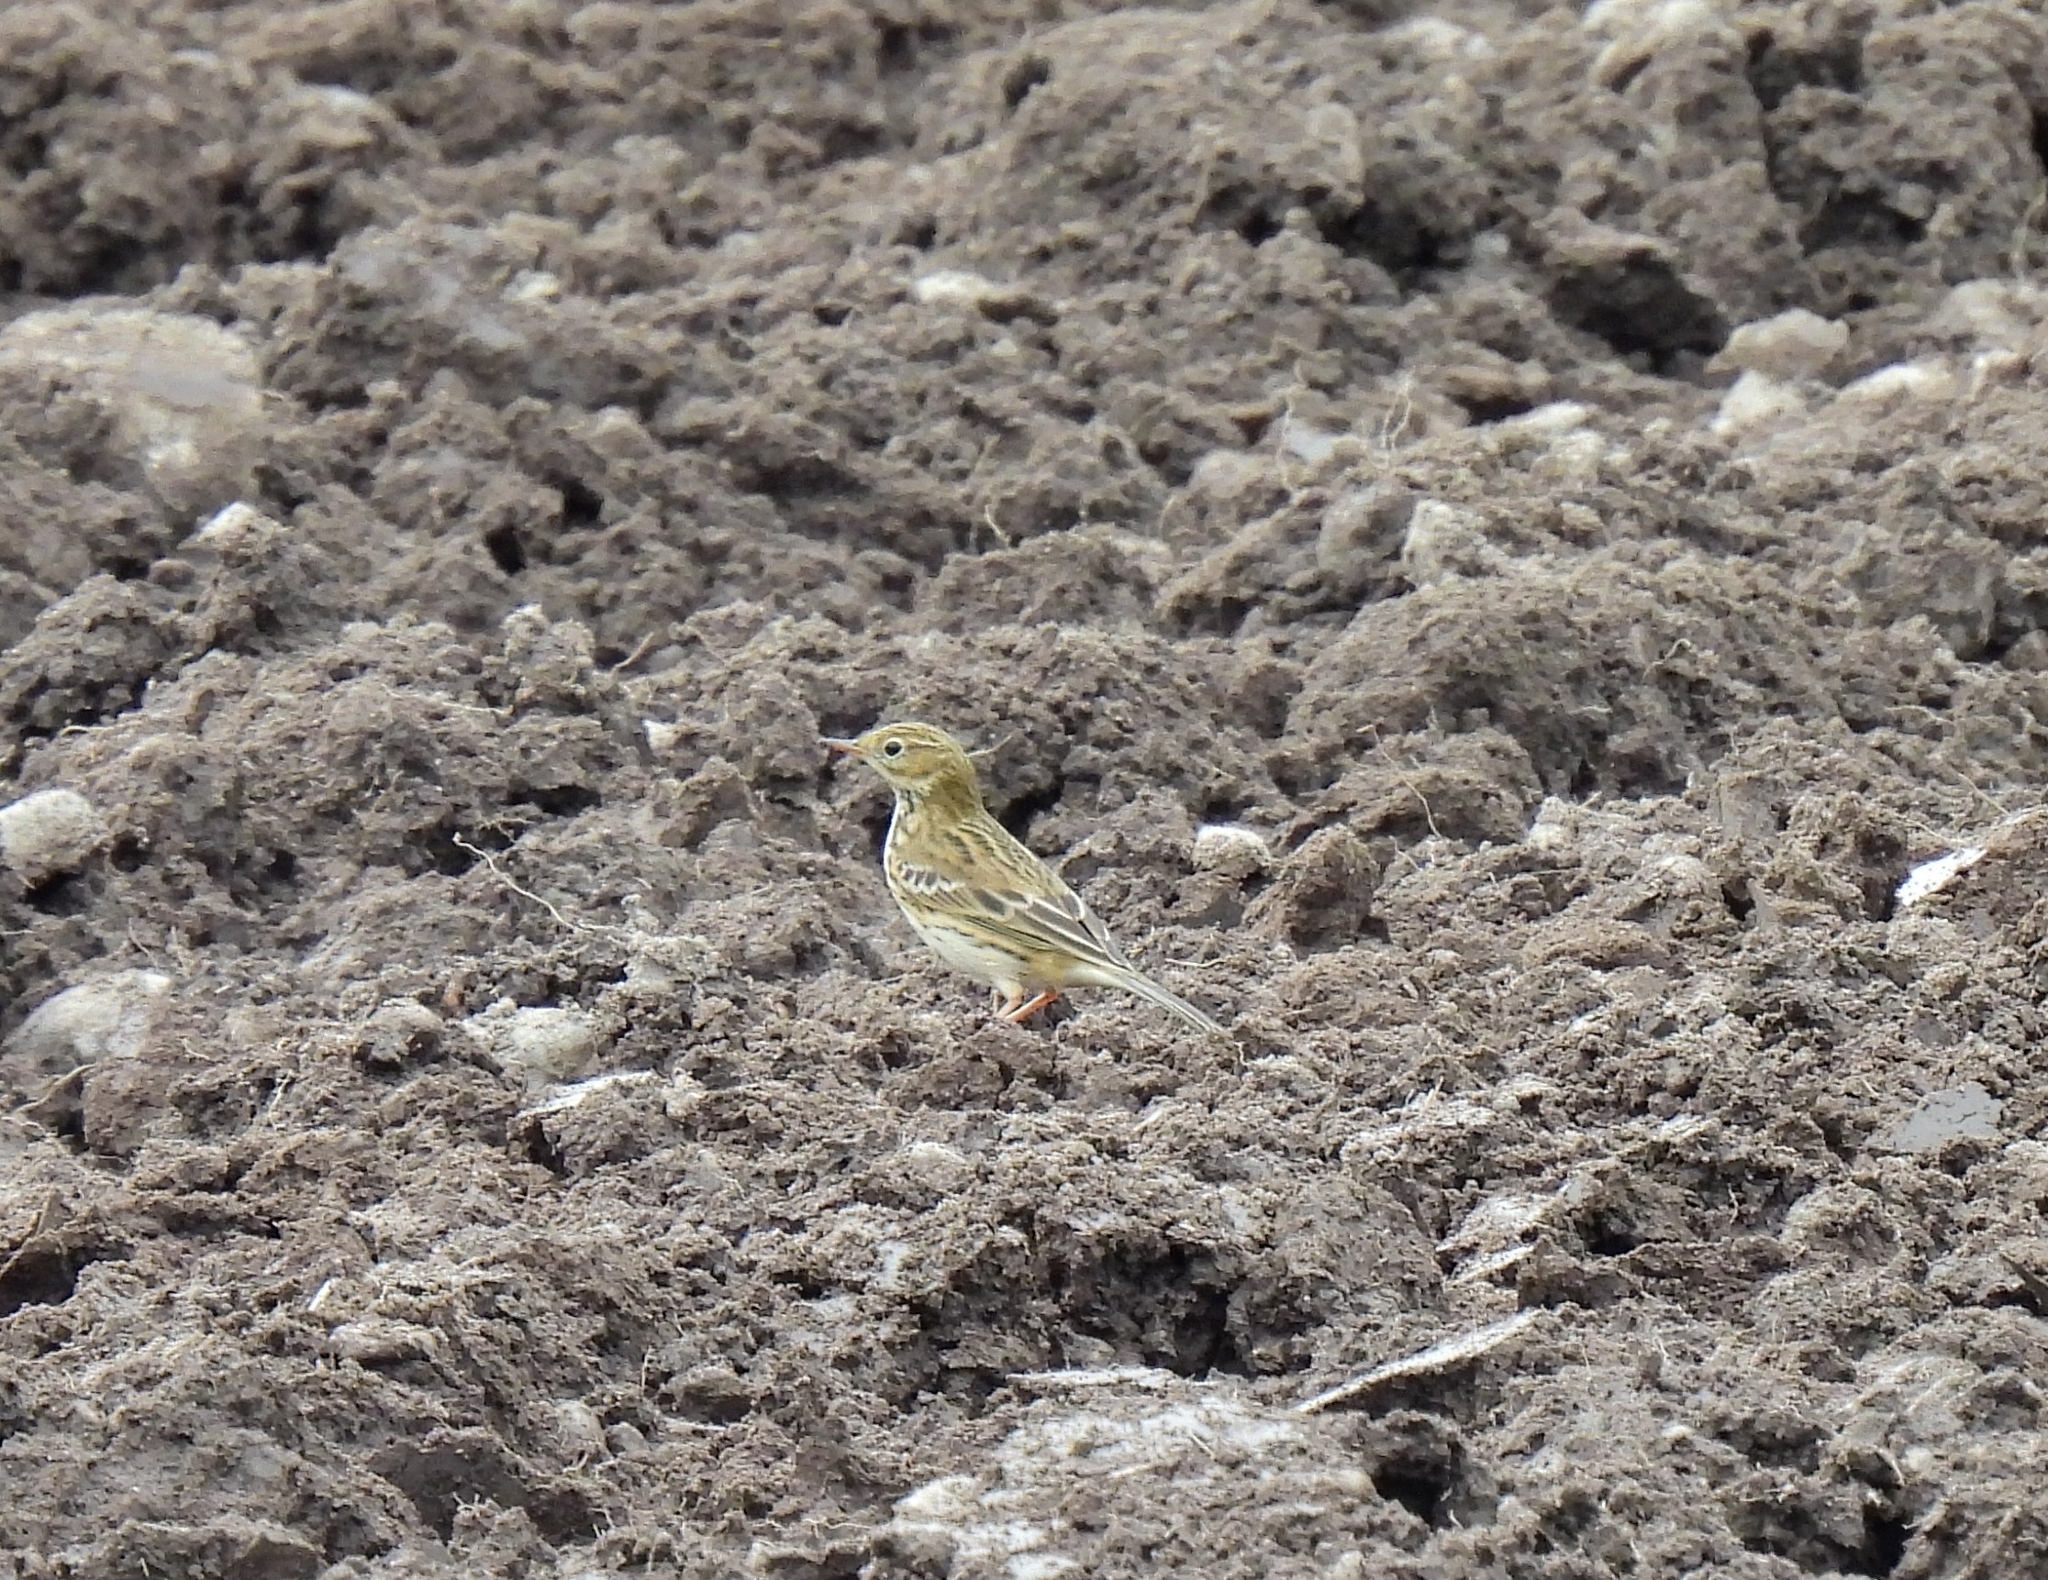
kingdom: Animalia
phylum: Chordata
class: Aves
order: Passeriformes
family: Motacillidae
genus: Anthus
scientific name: Anthus pratensis
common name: Meadow pipit
